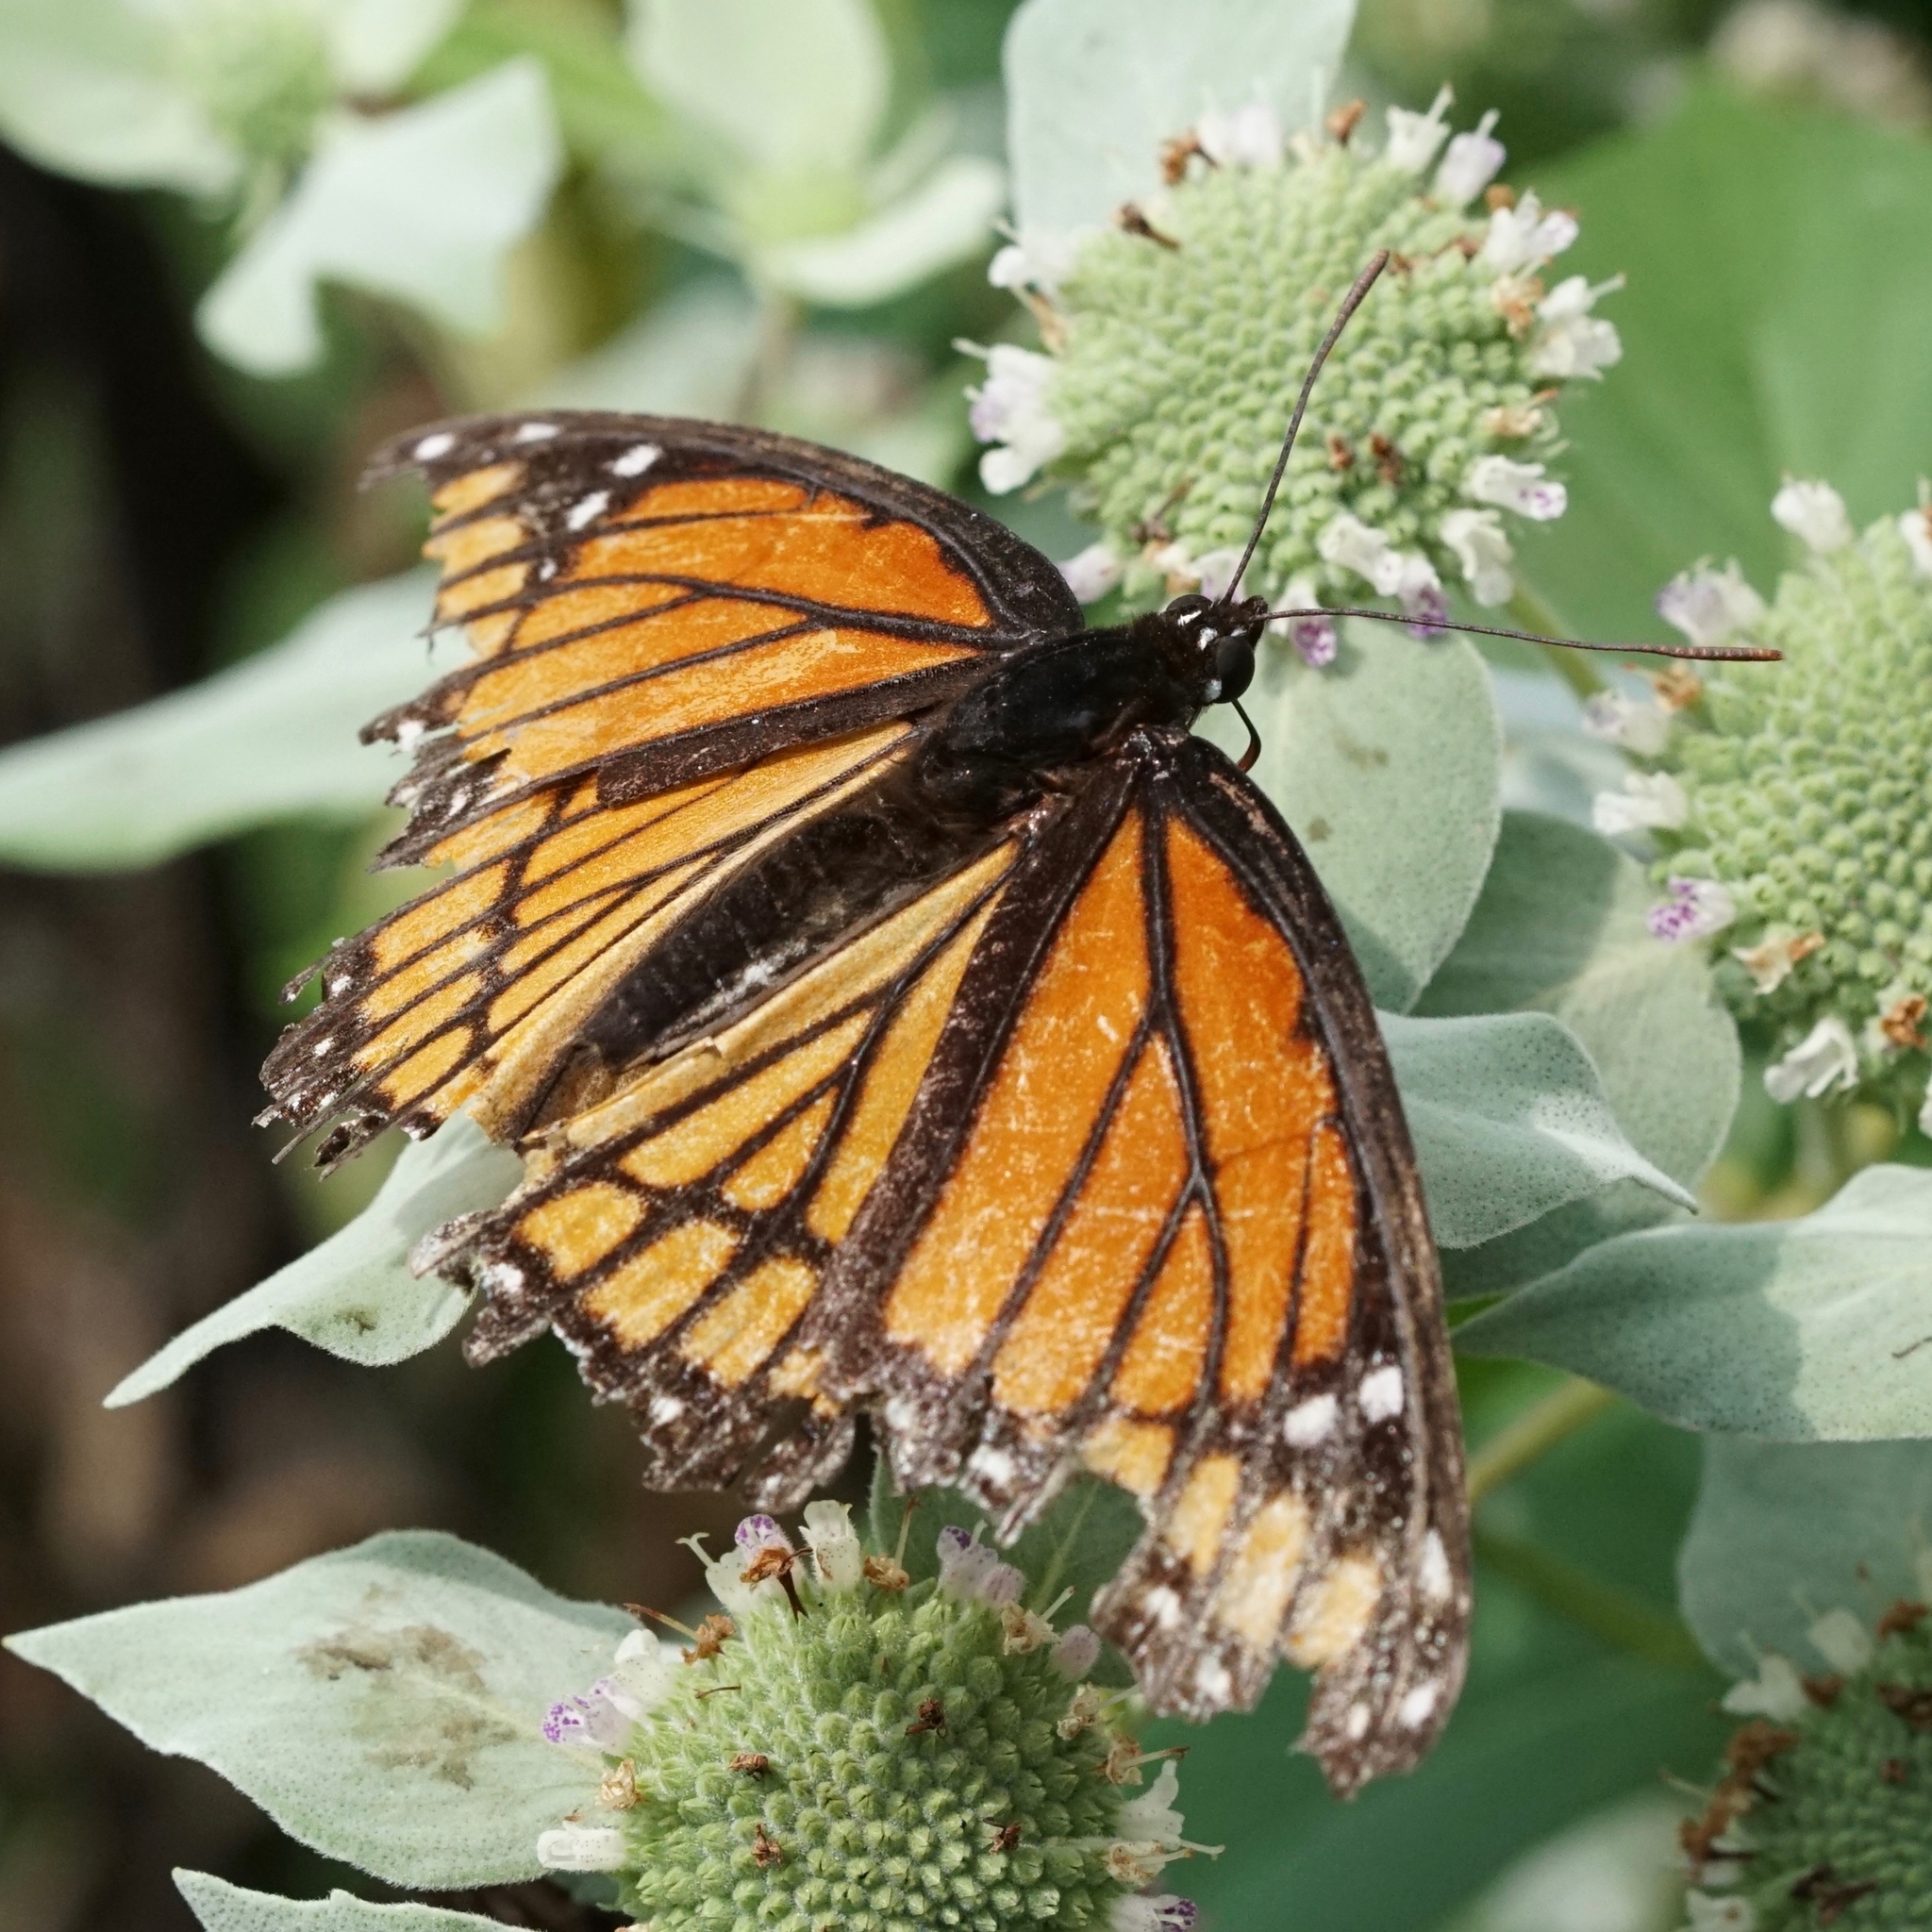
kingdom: Animalia
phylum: Arthropoda
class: Insecta
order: Lepidoptera
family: Nymphalidae
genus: Limenitis
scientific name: Limenitis archippus
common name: Viceroy
